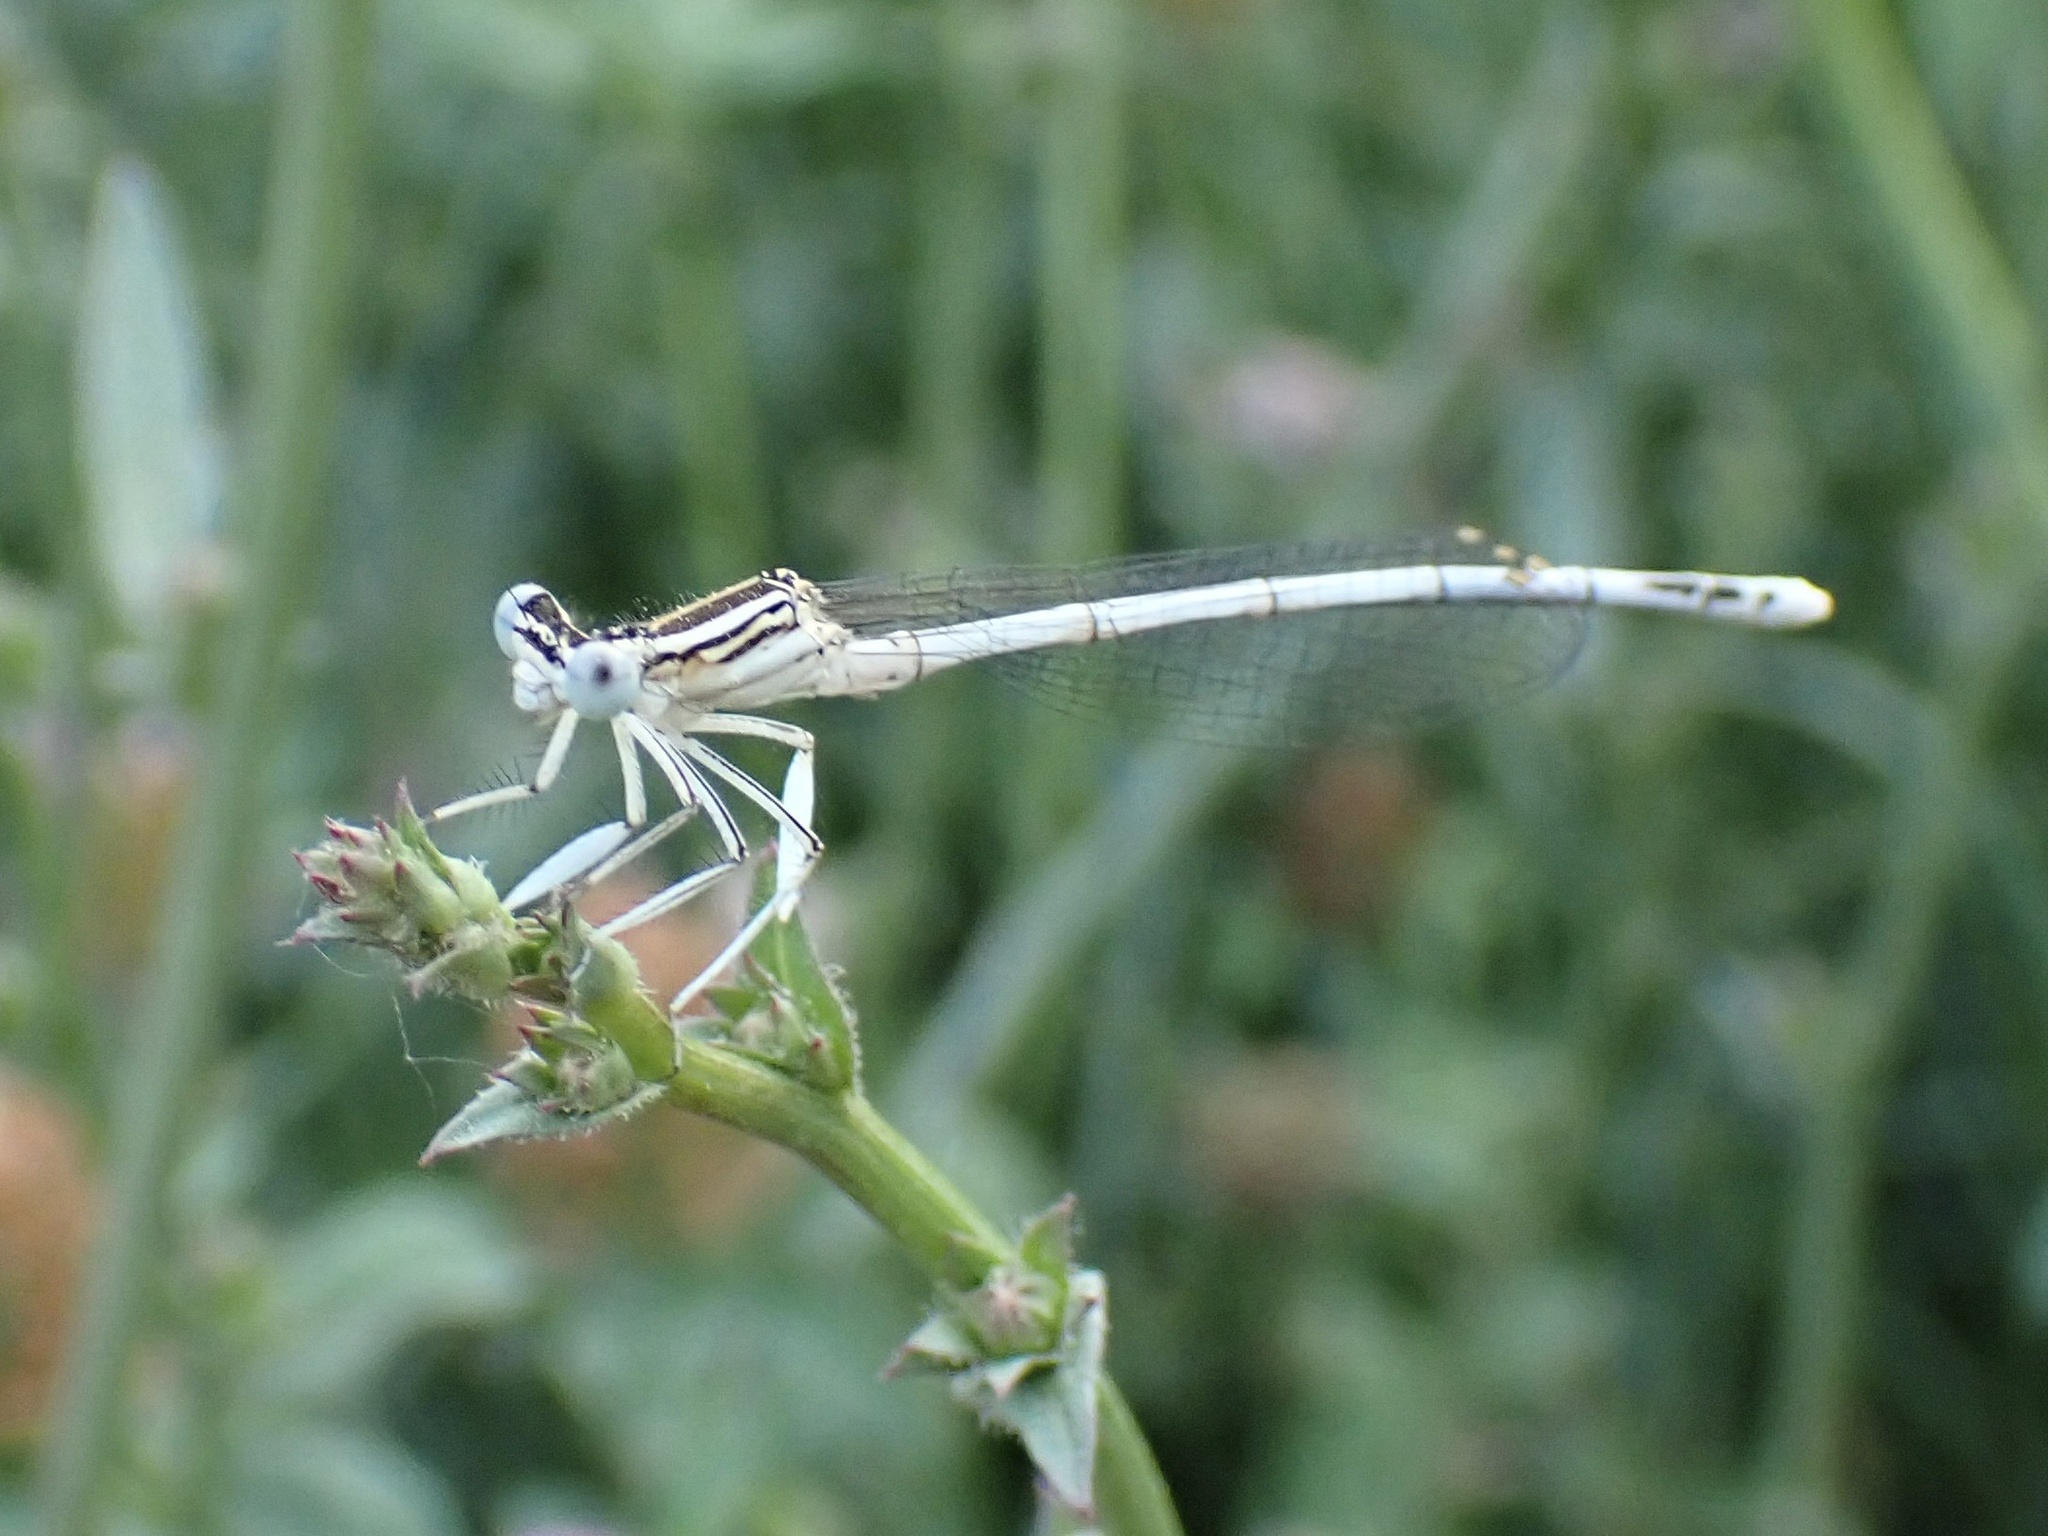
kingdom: Animalia
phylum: Arthropoda
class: Insecta
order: Odonata
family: Platycnemididae
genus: Platycnemis
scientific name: Platycnemis pennipes
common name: White-legged damselfly
